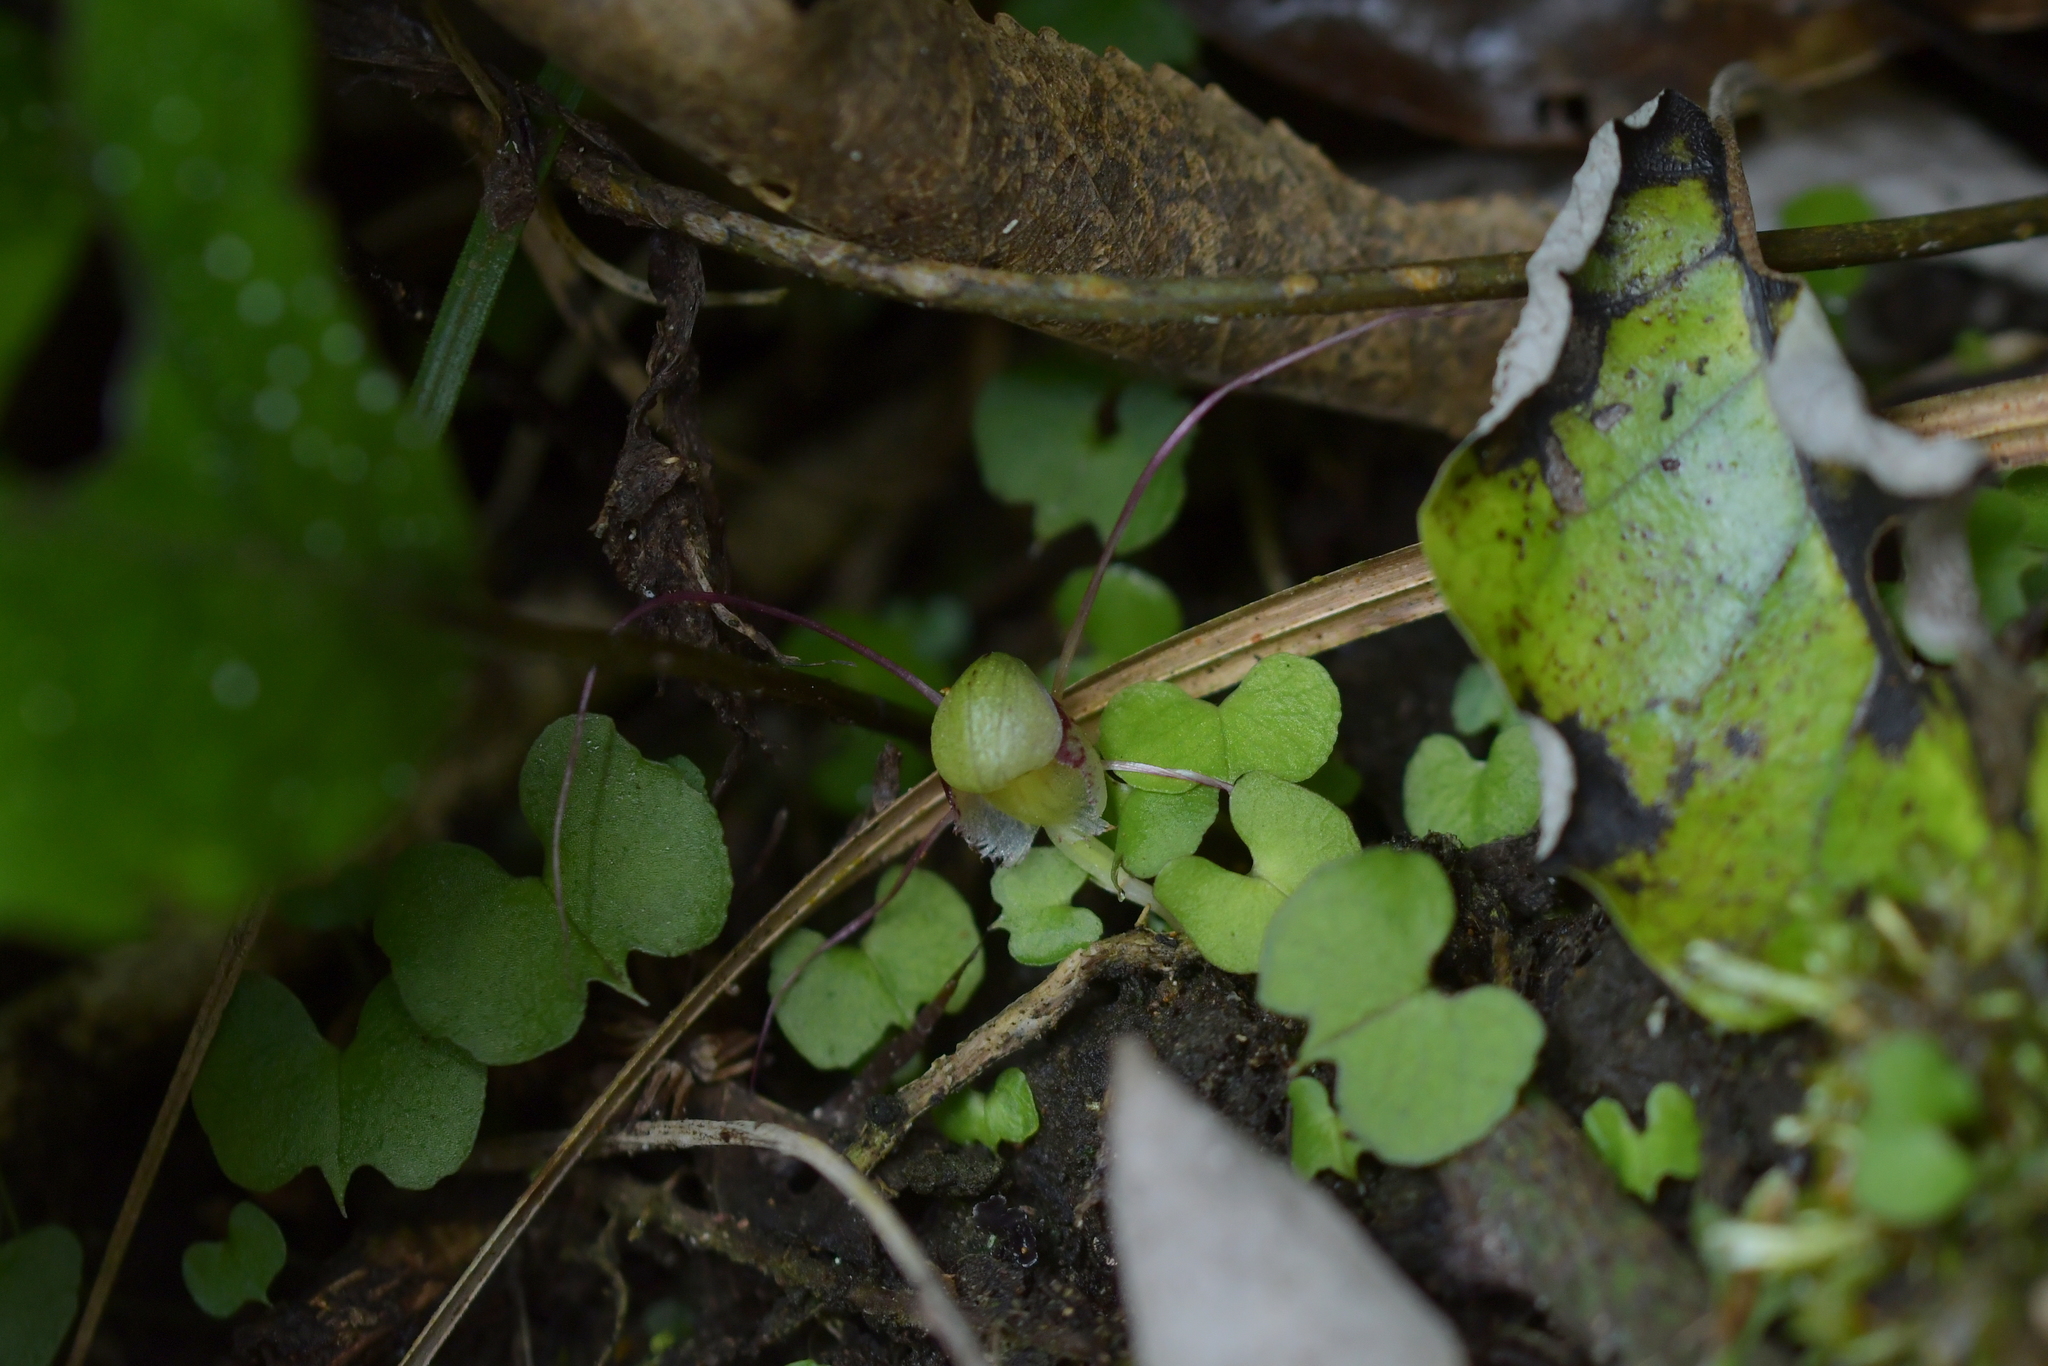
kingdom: Plantae
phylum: Tracheophyta
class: Liliopsida
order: Asparagales
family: Orchidaceae
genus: Corybas
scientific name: Corybas vitreus
